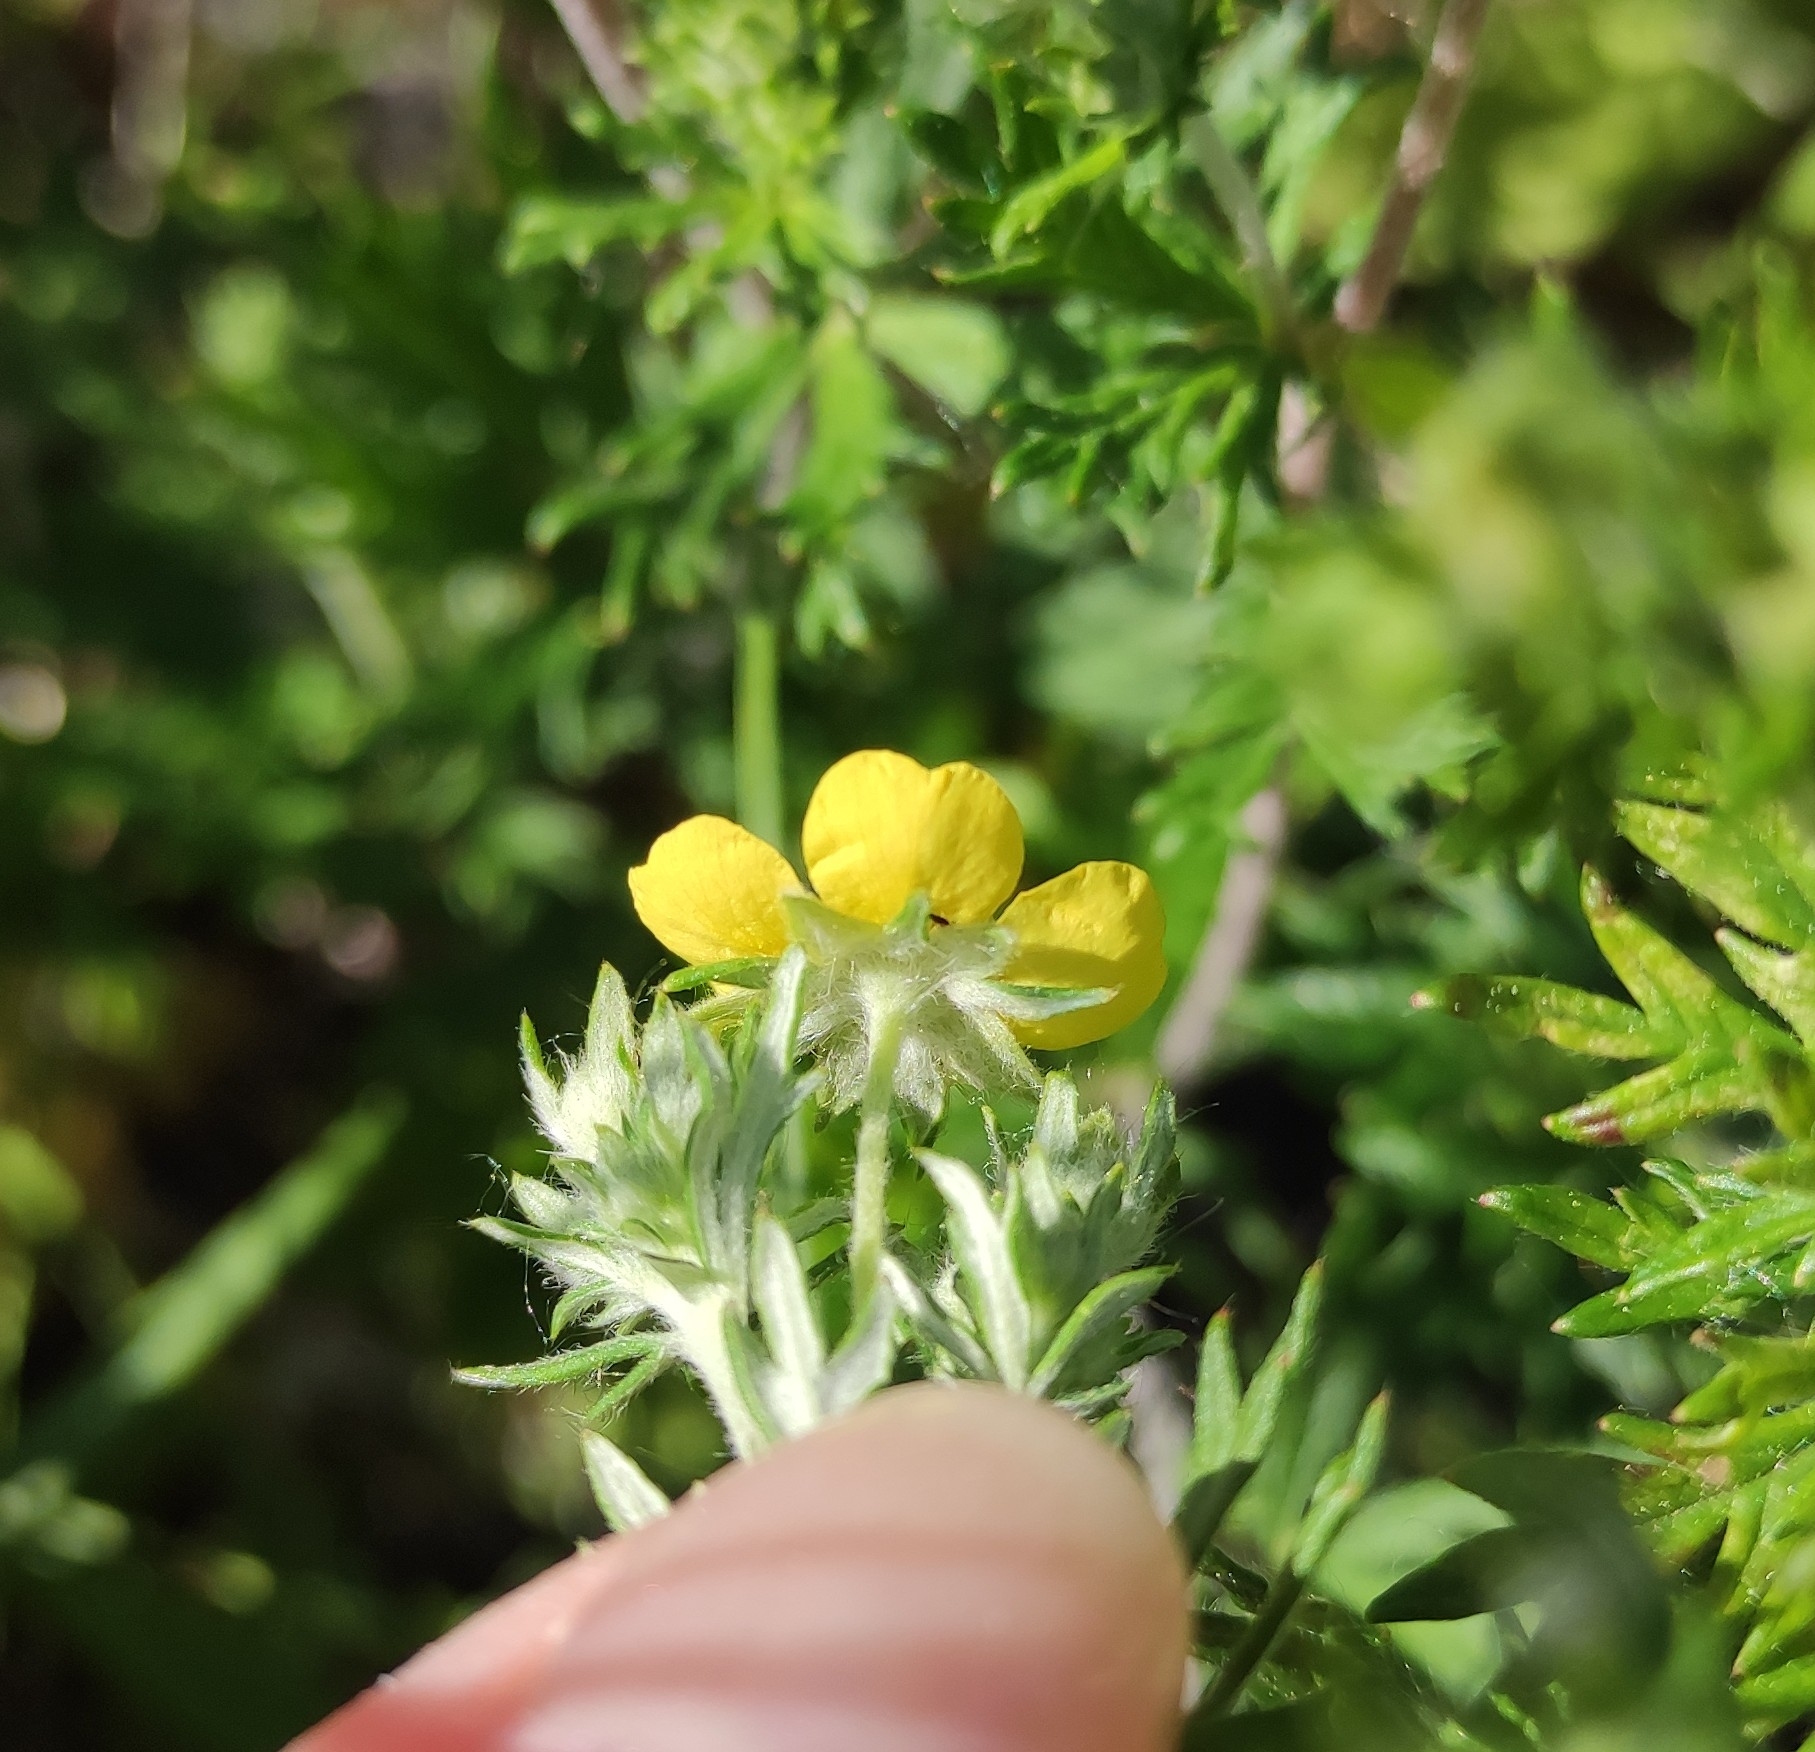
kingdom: Plantae
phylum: Tracheophyta
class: Magnoliopsida
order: Rosales
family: Rosaceae
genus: Potentilla
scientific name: Potentilla argentea
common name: Hoary cinquefoil
